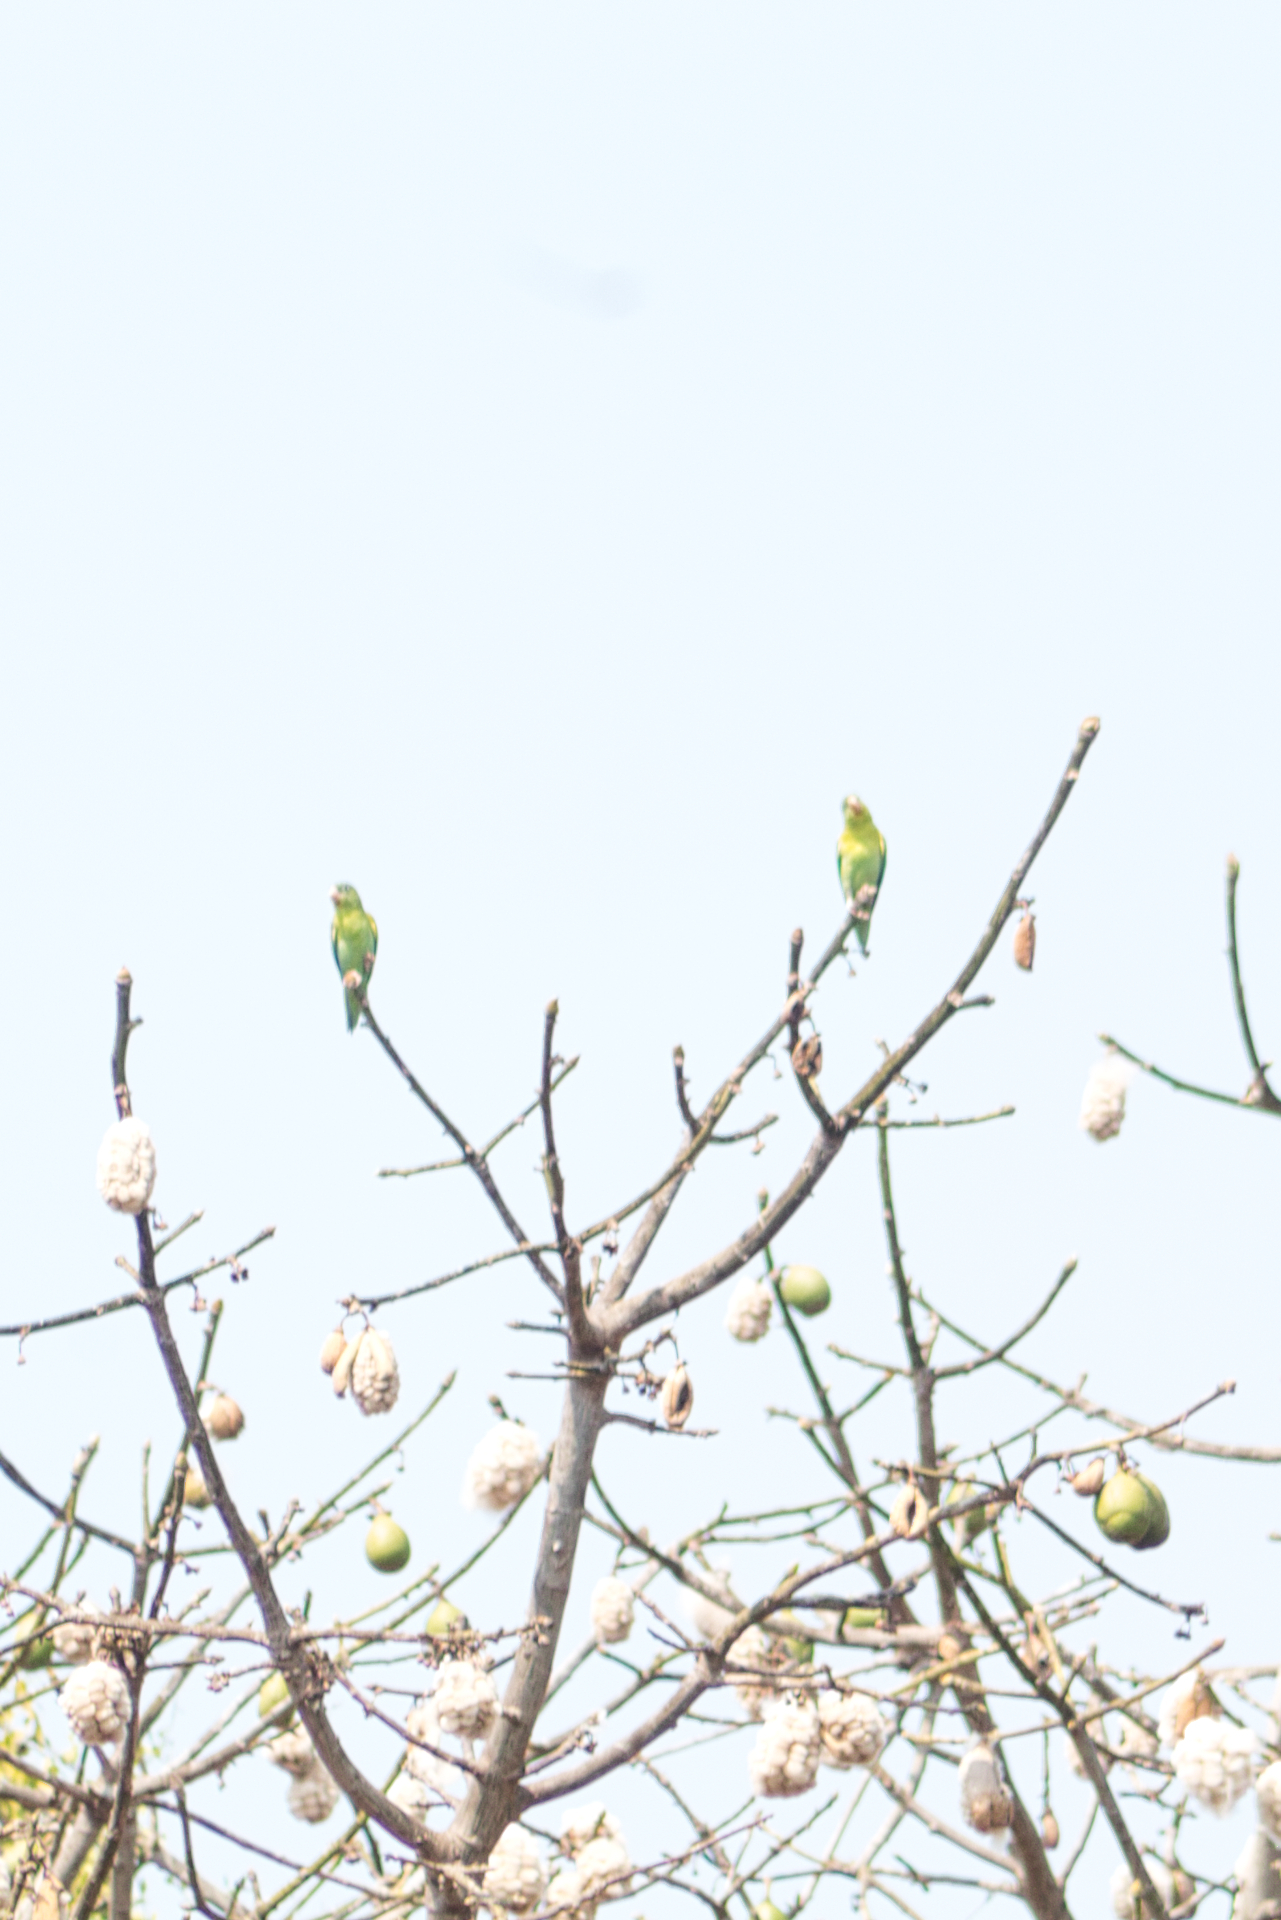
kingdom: Animalia
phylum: Chordata
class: Aves
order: Psittaciformes
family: Psittacidae
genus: Brotogeris
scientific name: Brotogeris jugularis
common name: Orange-chinned parakeet
